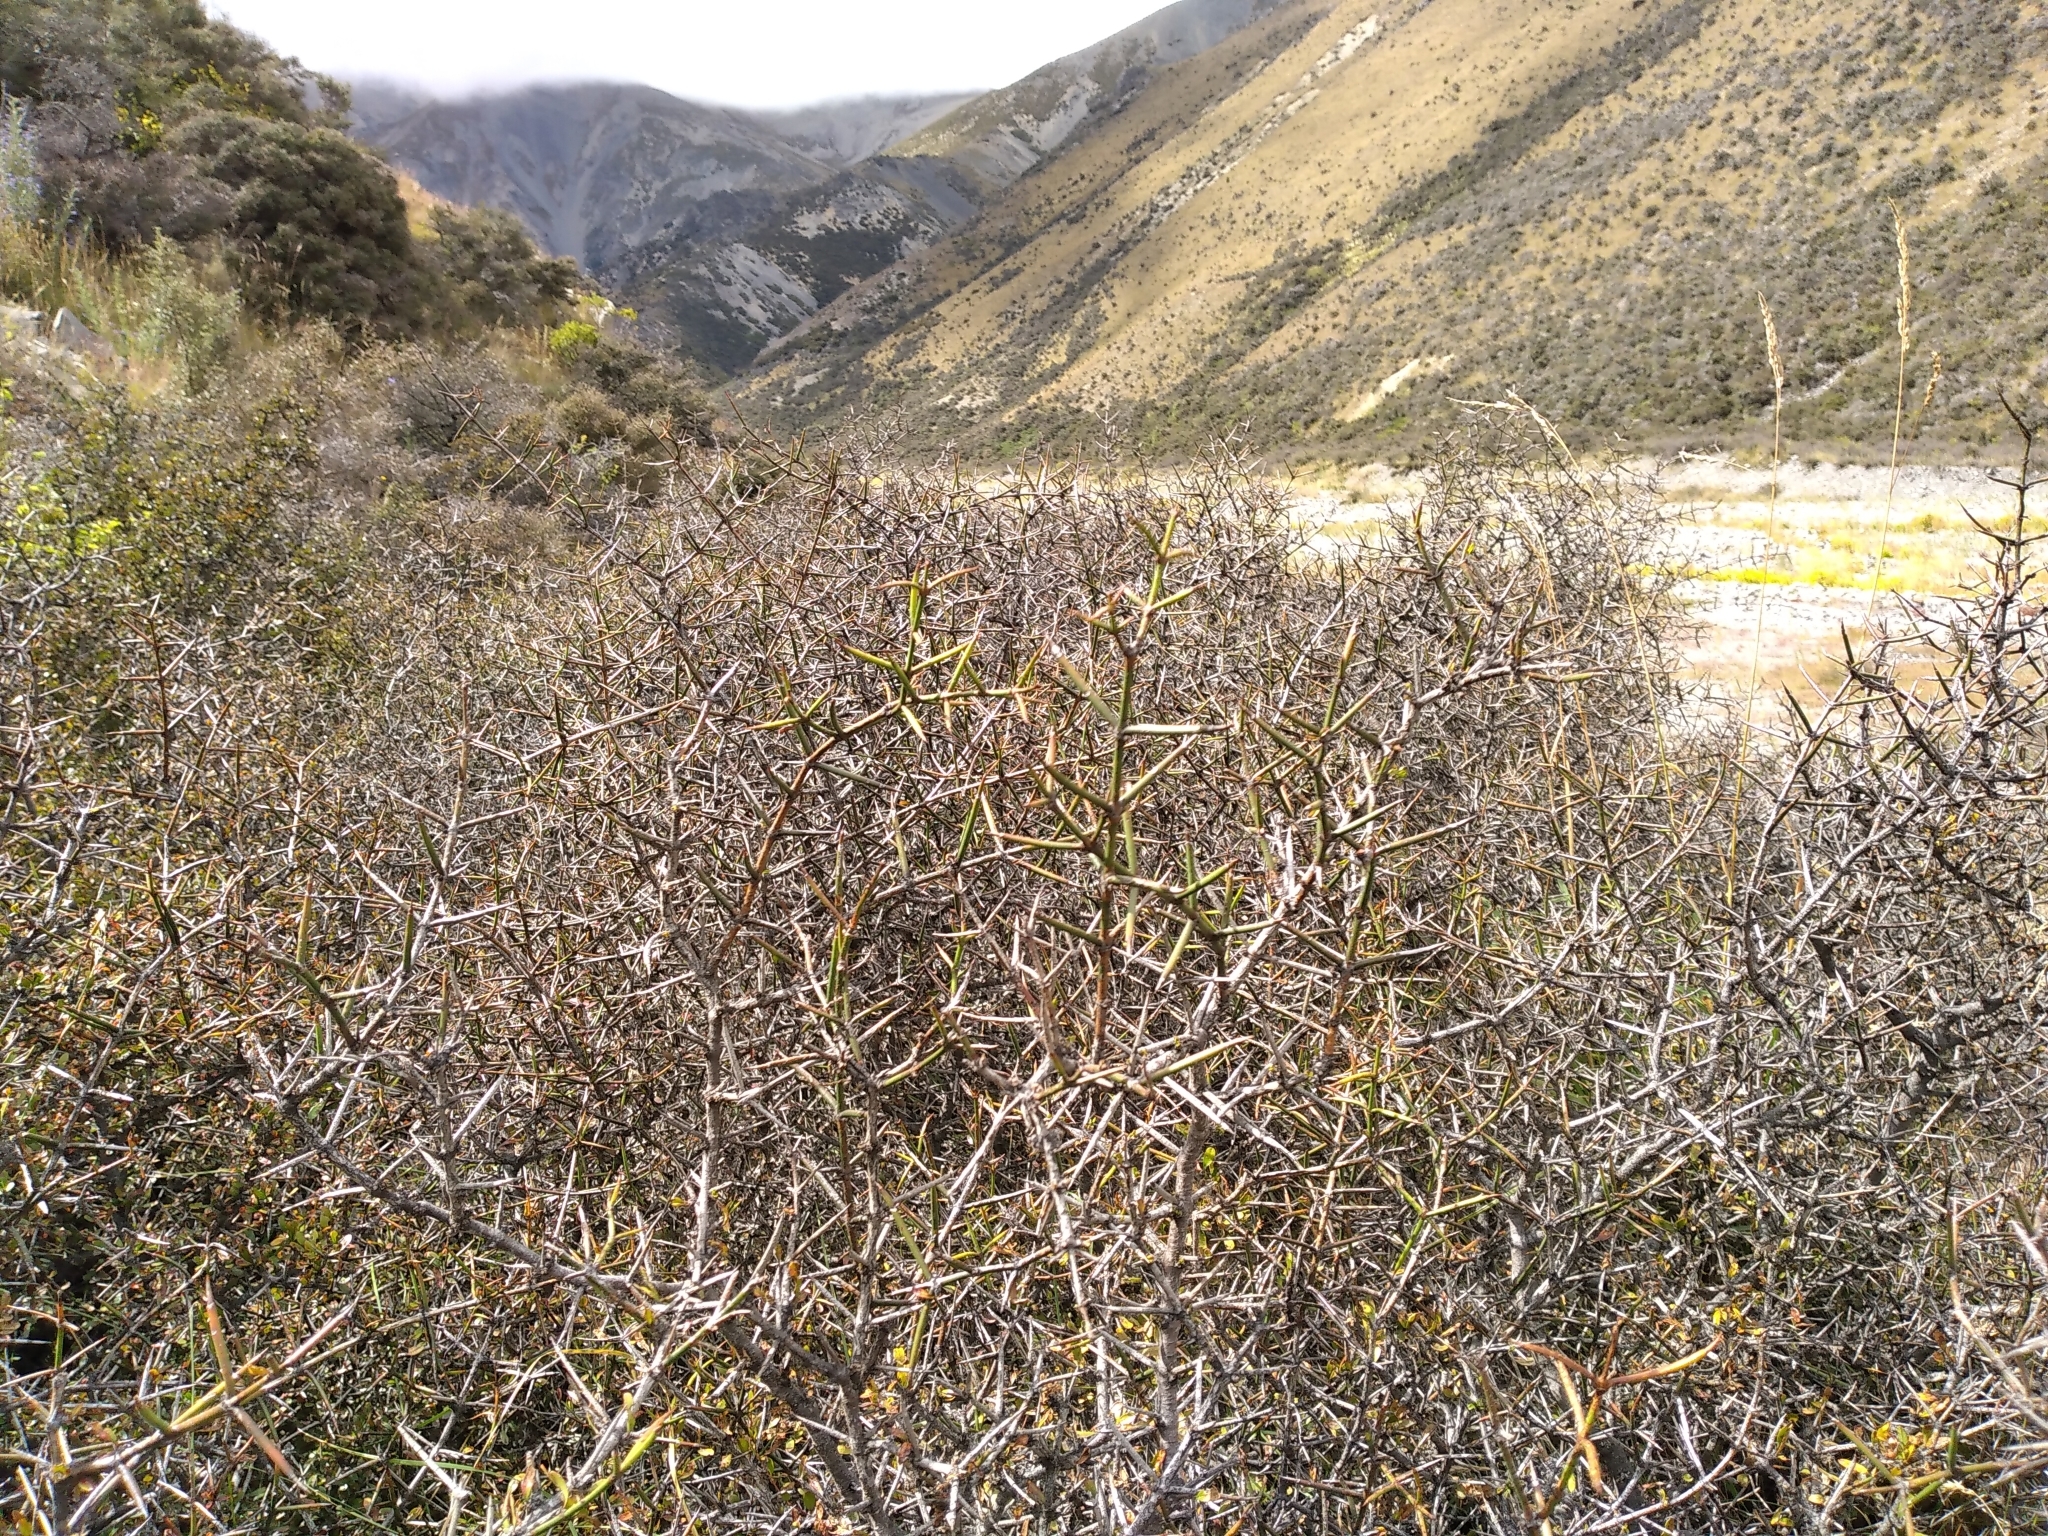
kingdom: Plantae
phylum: Tracheophyta
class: Magnoliopsida
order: Rosales
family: Rhamnaceae
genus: Discaria
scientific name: Discaria toumatou
